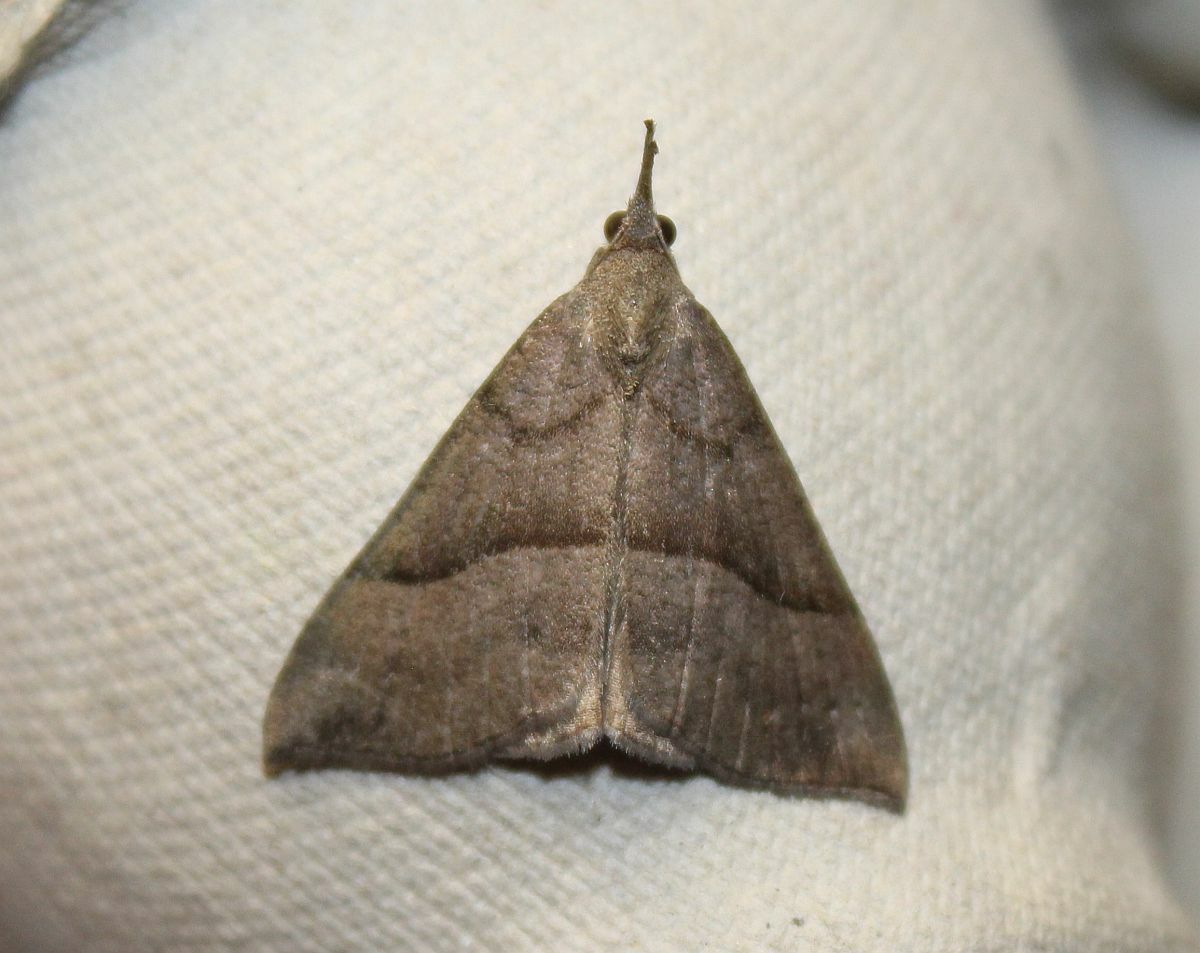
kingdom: Animalia
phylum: Arthropoda
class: Insecta
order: Lepidoptera
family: Erebidae
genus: Hypena
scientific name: Hypena proboscidalis
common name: Snout
